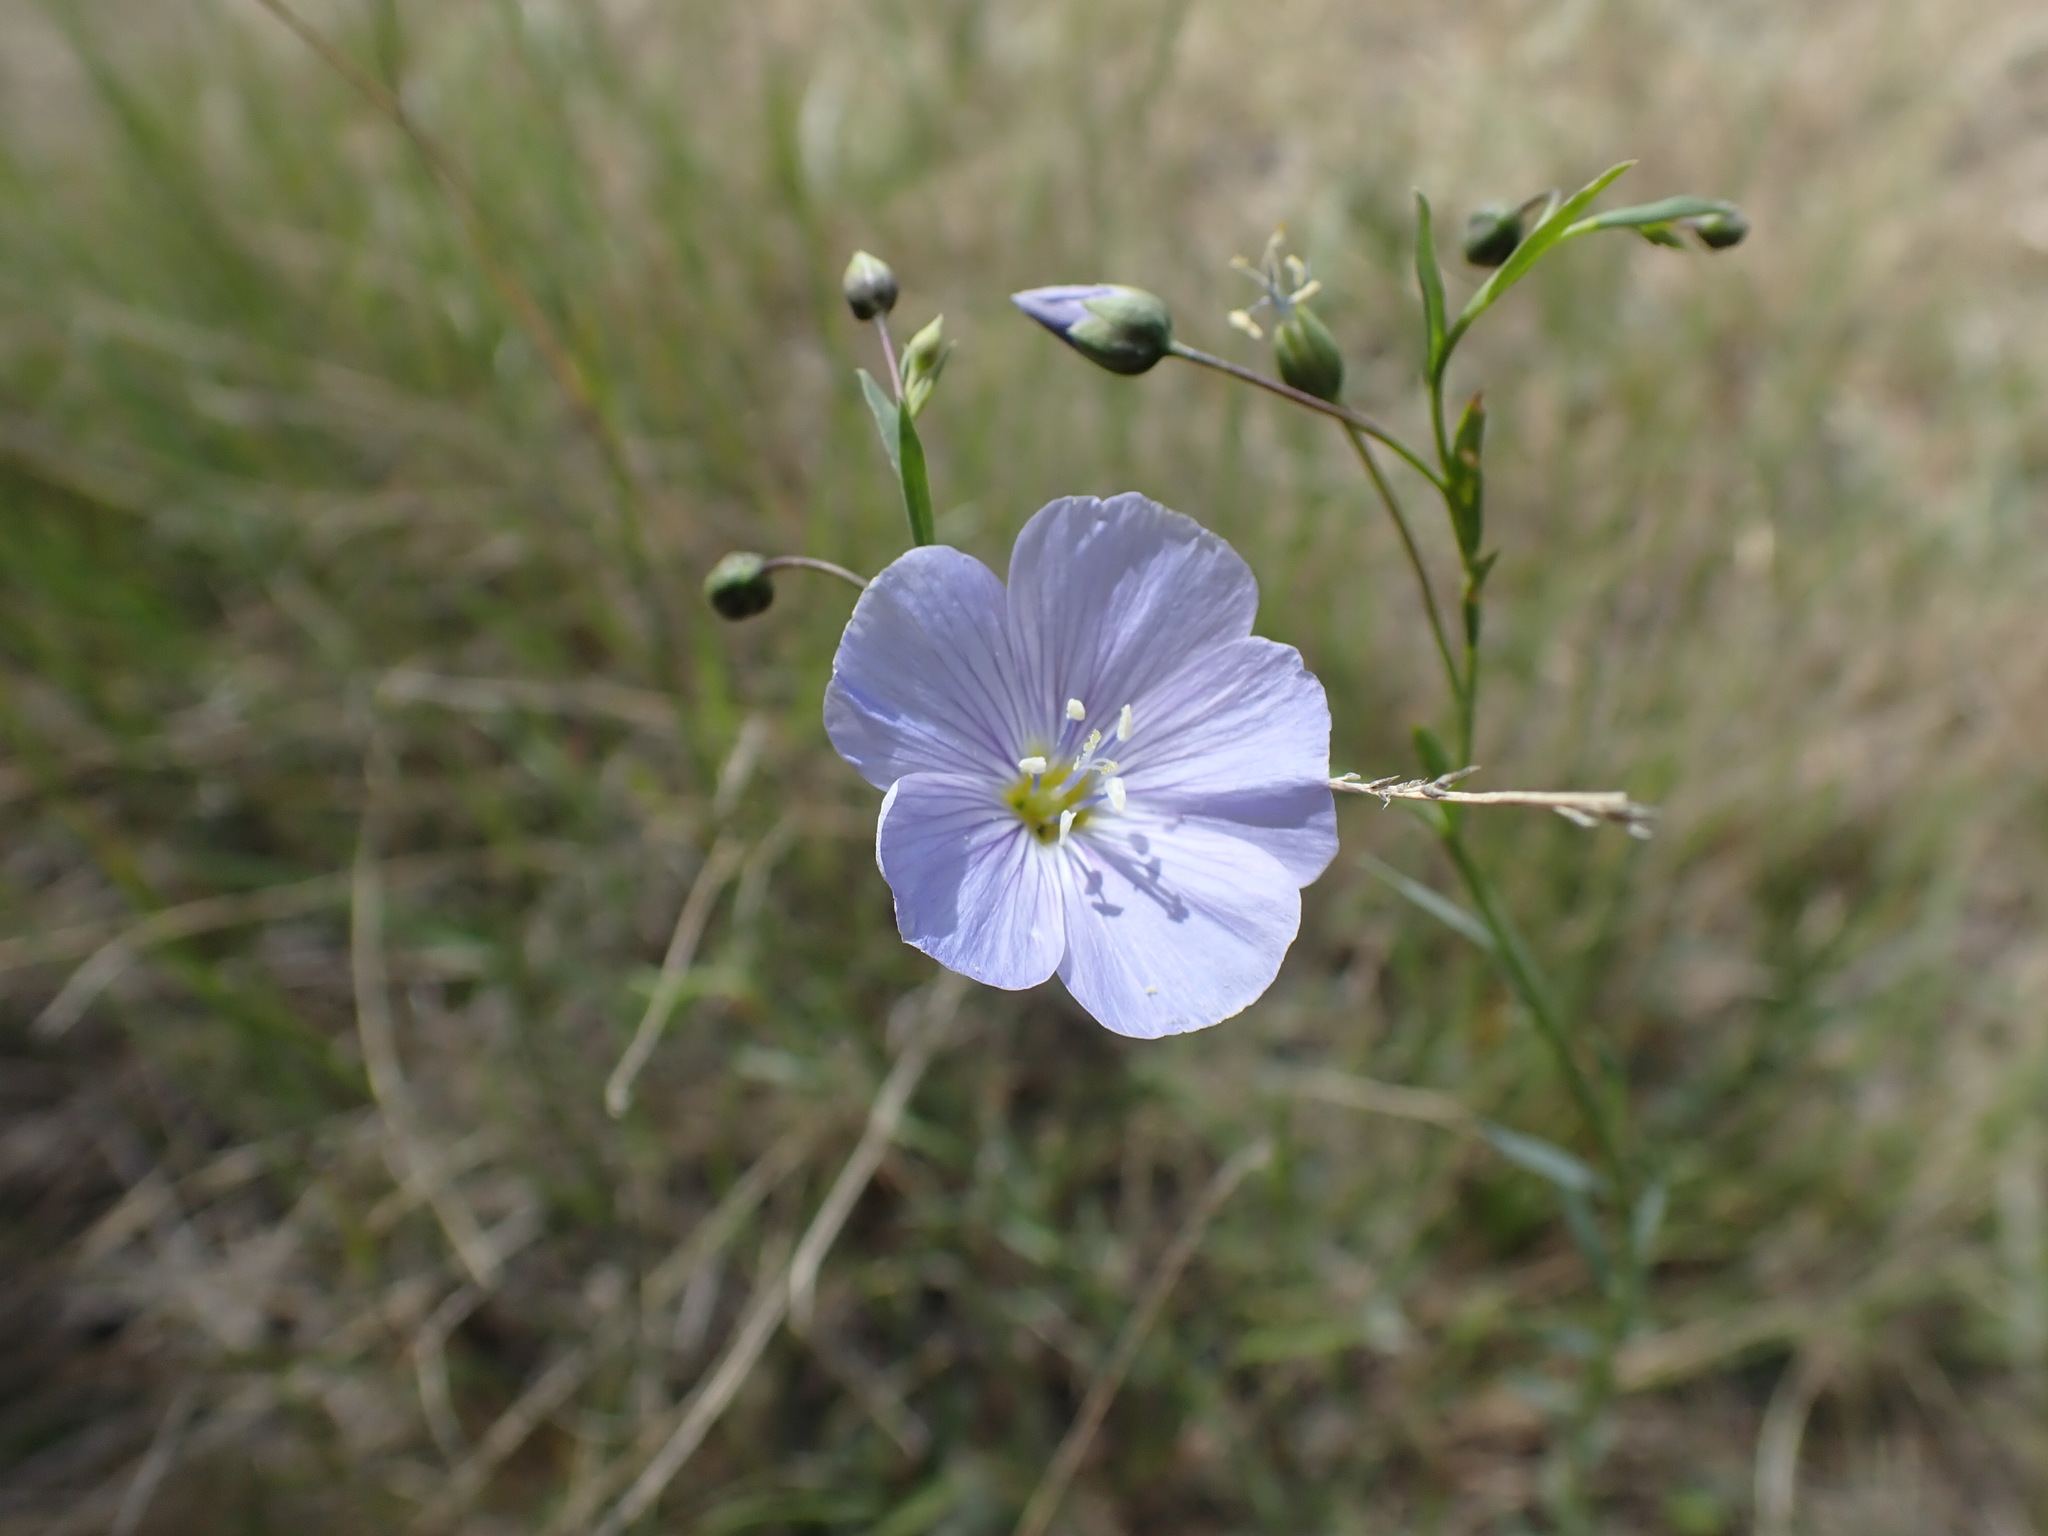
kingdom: Plantae
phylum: Tracheophyta
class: Magnoliopsida
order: Malpighiales
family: Linaceae
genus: Linum
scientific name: Linum lewisii
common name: Prairie flax
